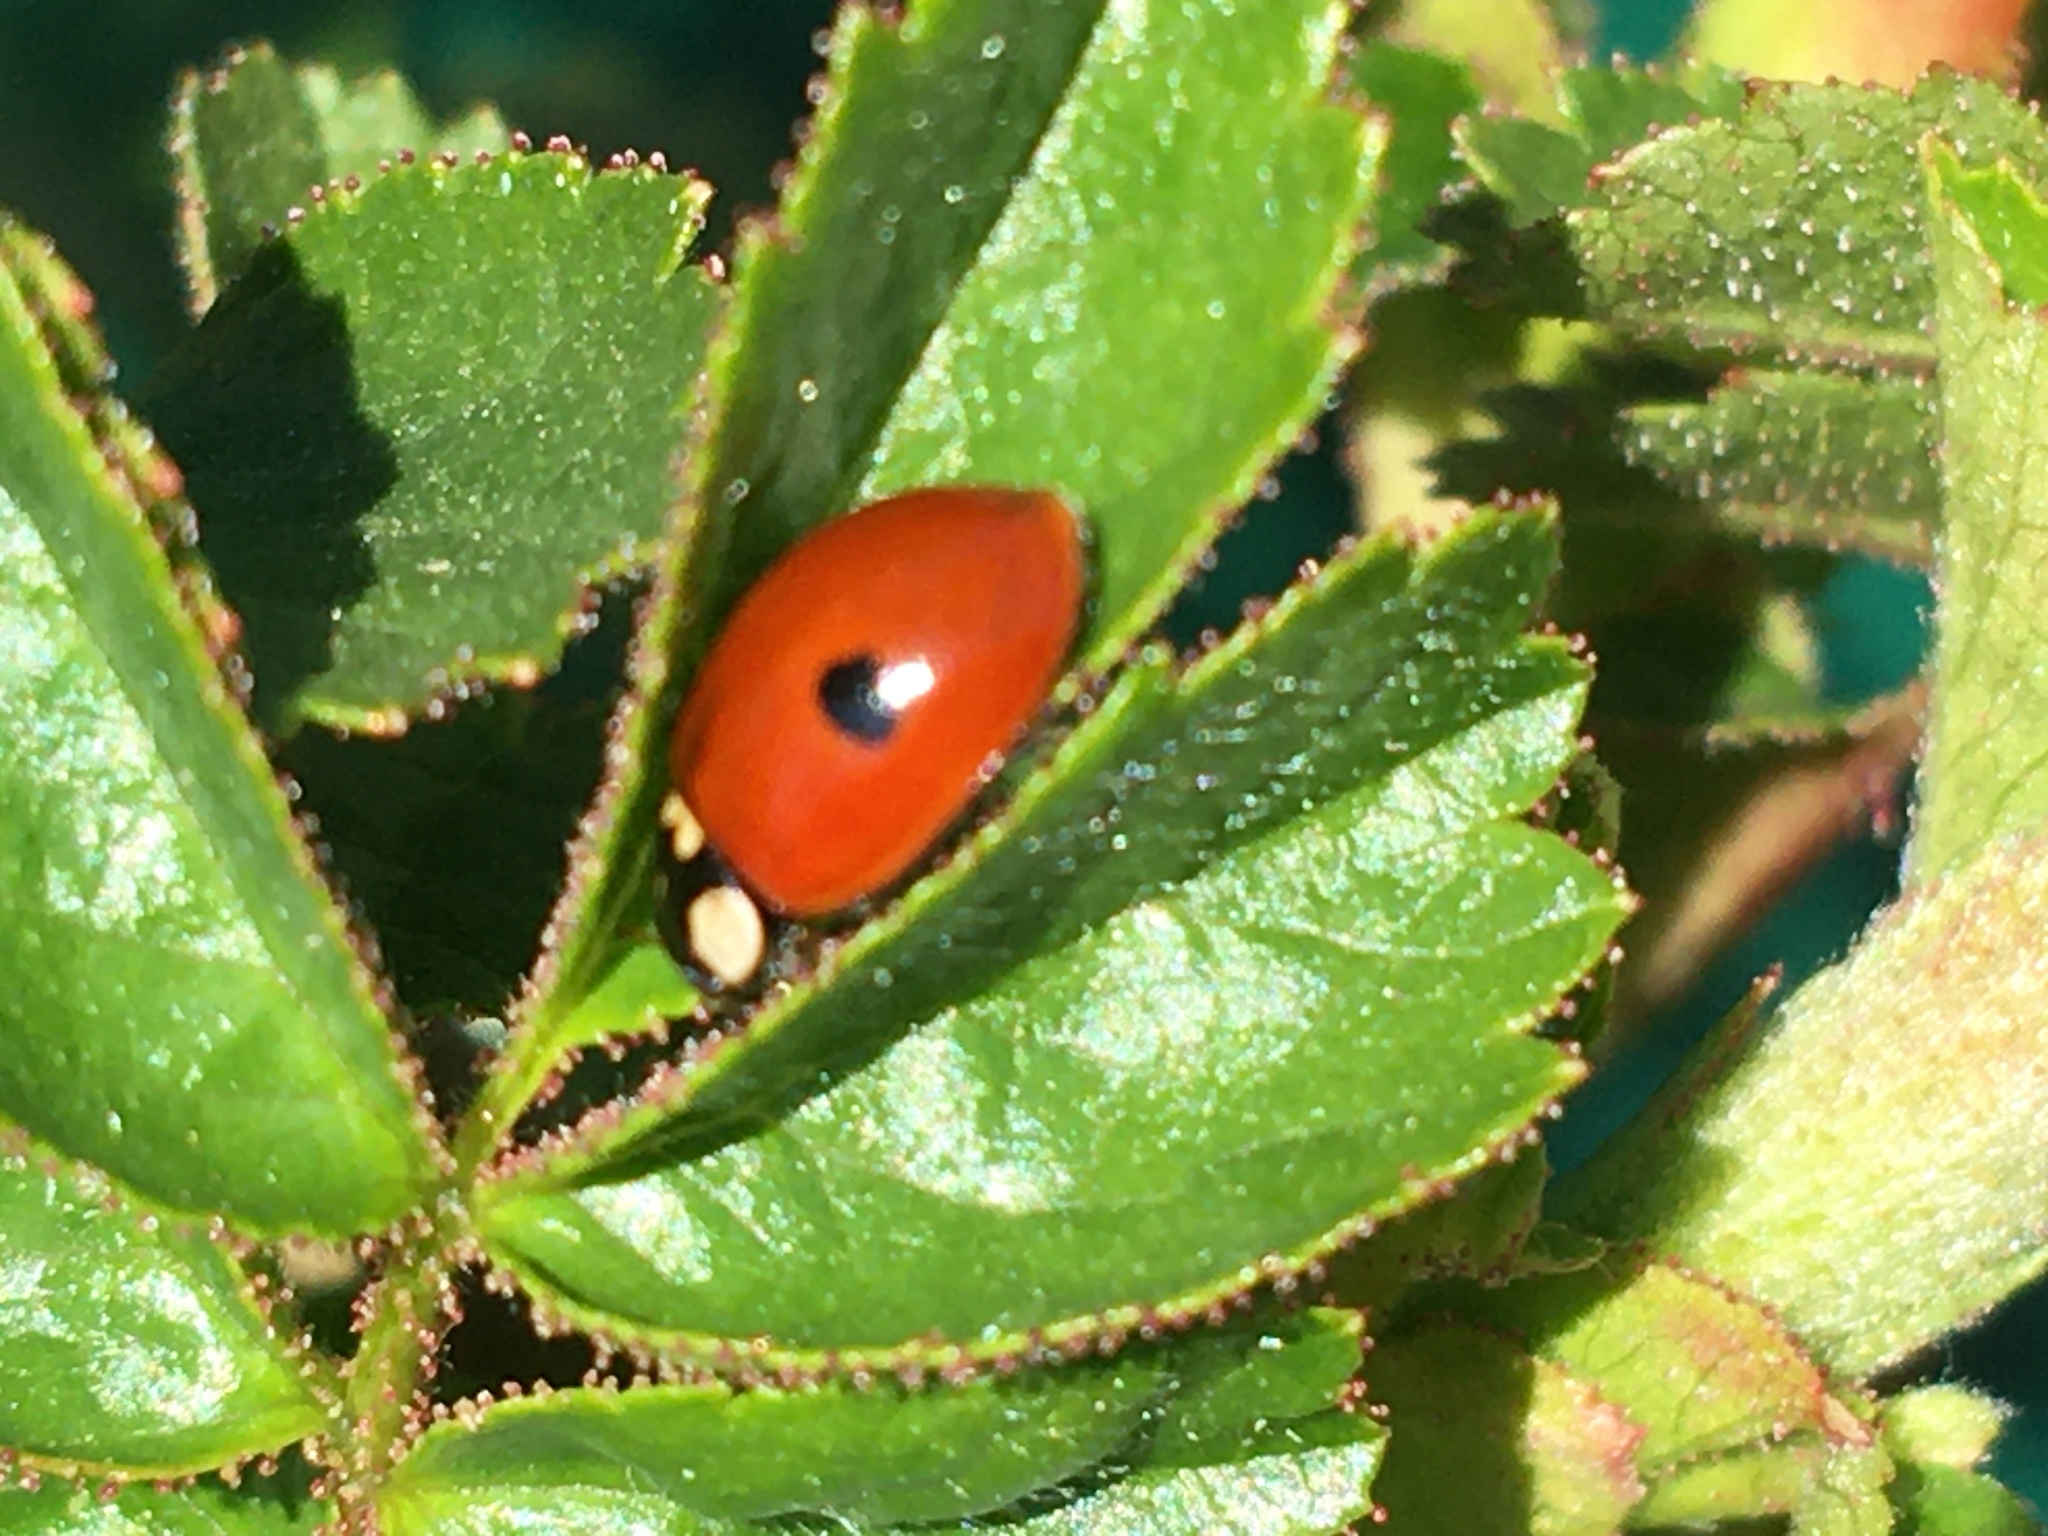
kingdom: Animalia
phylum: Arthropoda
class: Insecta
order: Coleoptera
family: Coccinellidae
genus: Adalia
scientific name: Adalia bipunctata
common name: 2-spot ladybird
